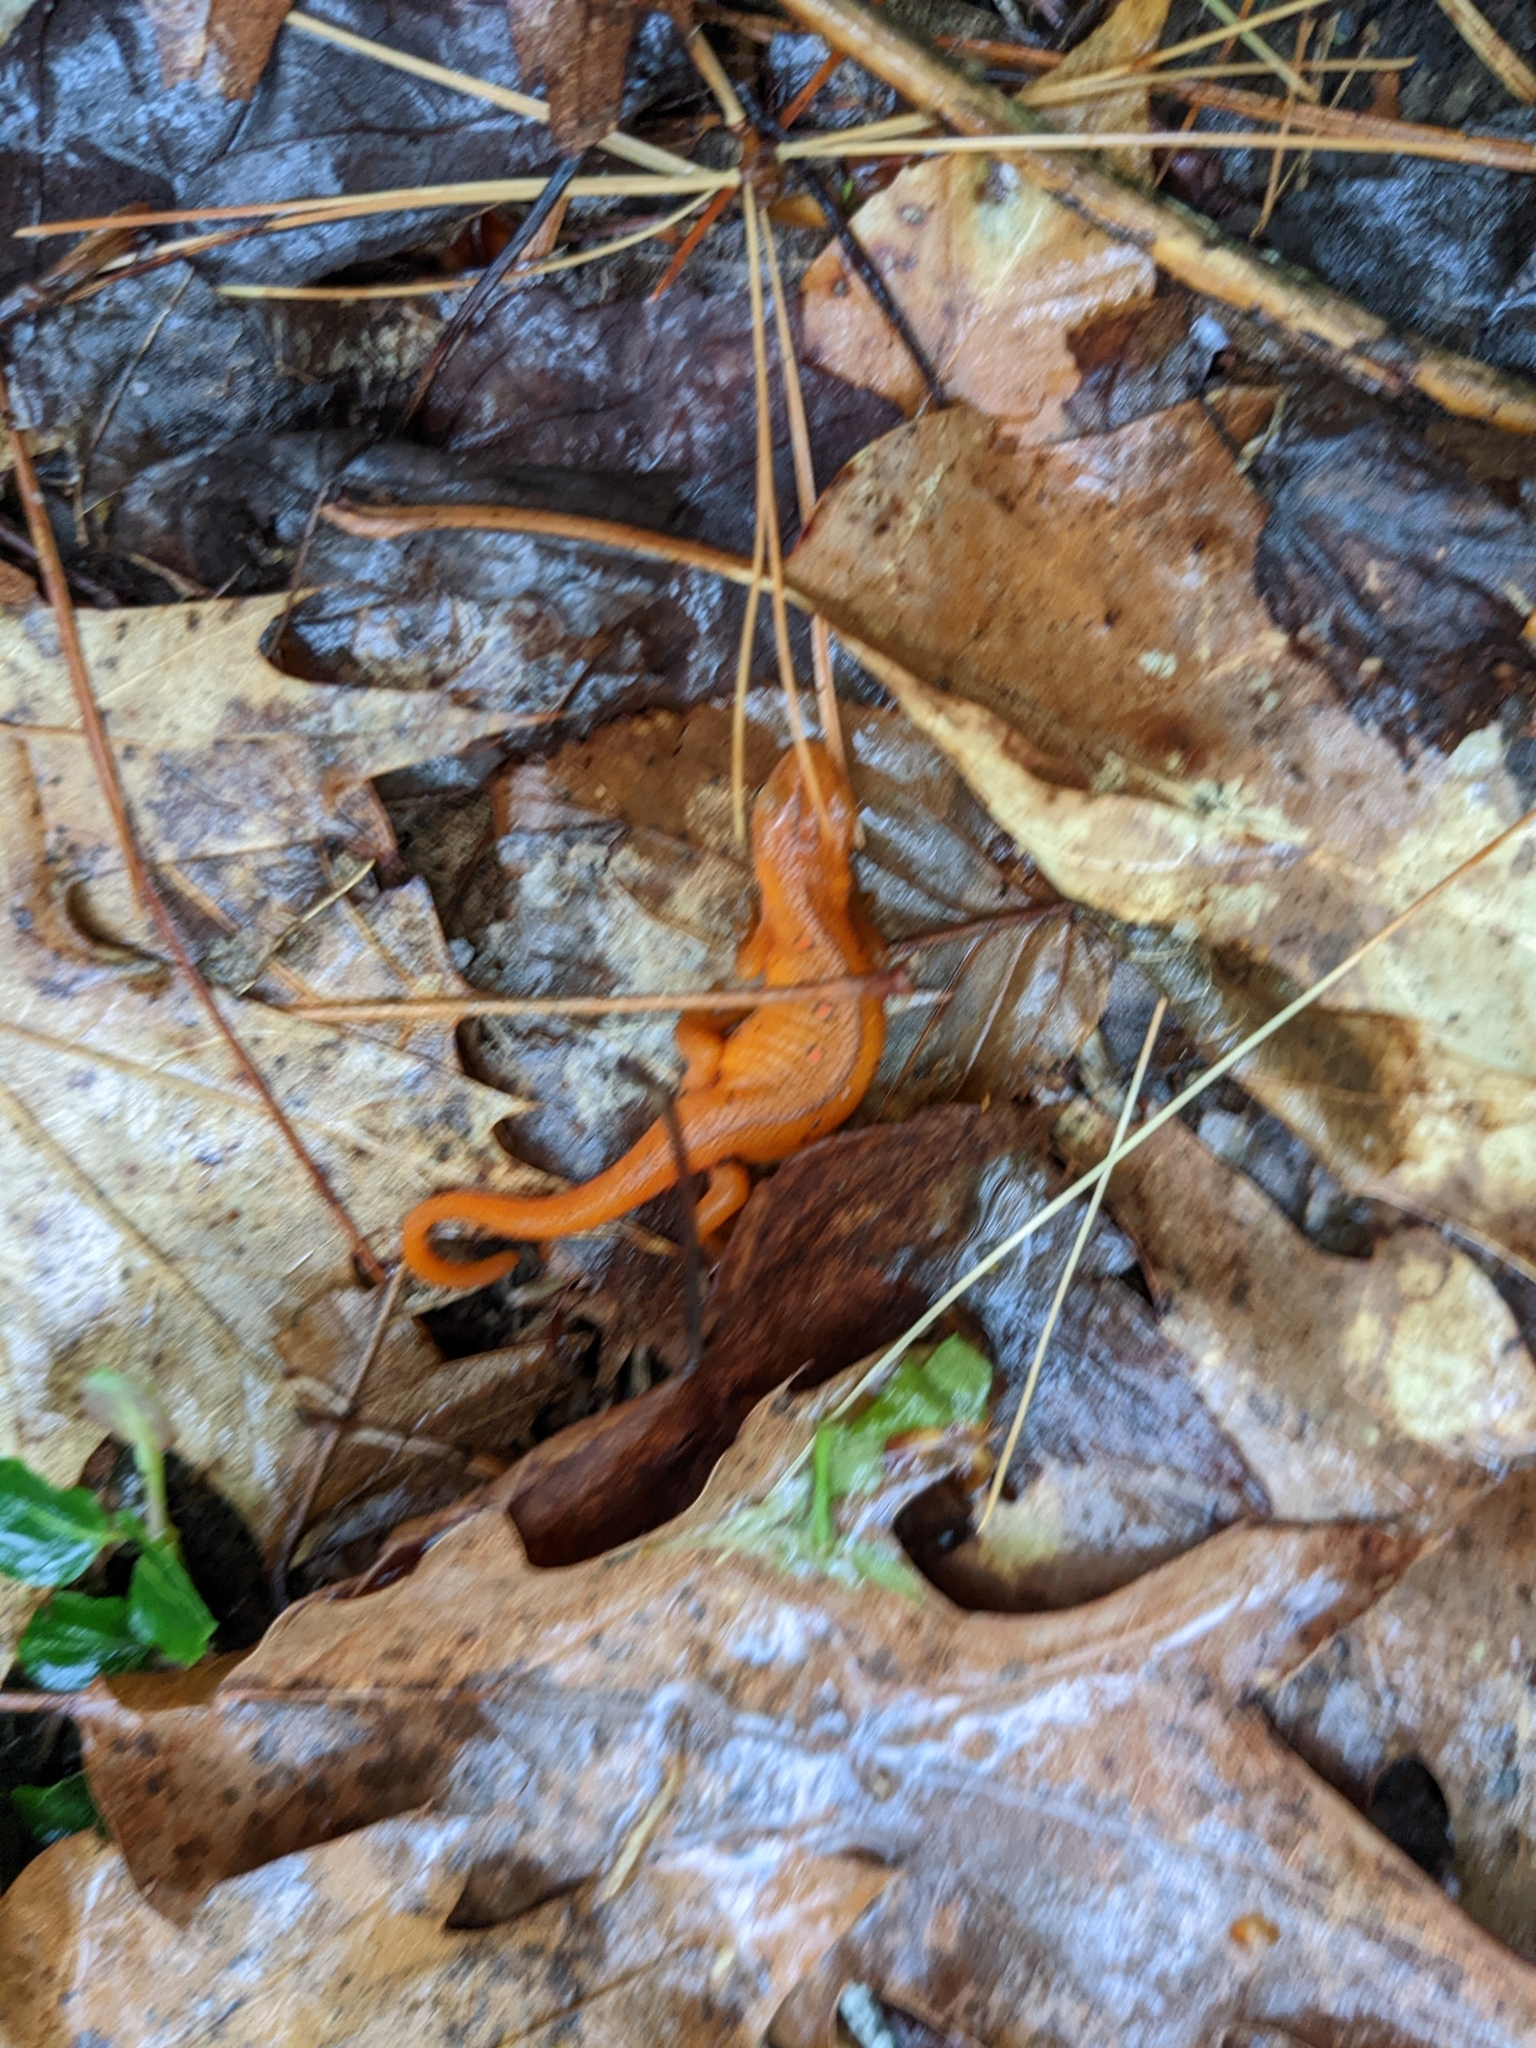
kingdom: Animalia
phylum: Chordata
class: Amphibia
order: Caudata
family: Salamandridae
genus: Notophthalmus
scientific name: Notophthalmus viridescens
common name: Eastern newt
